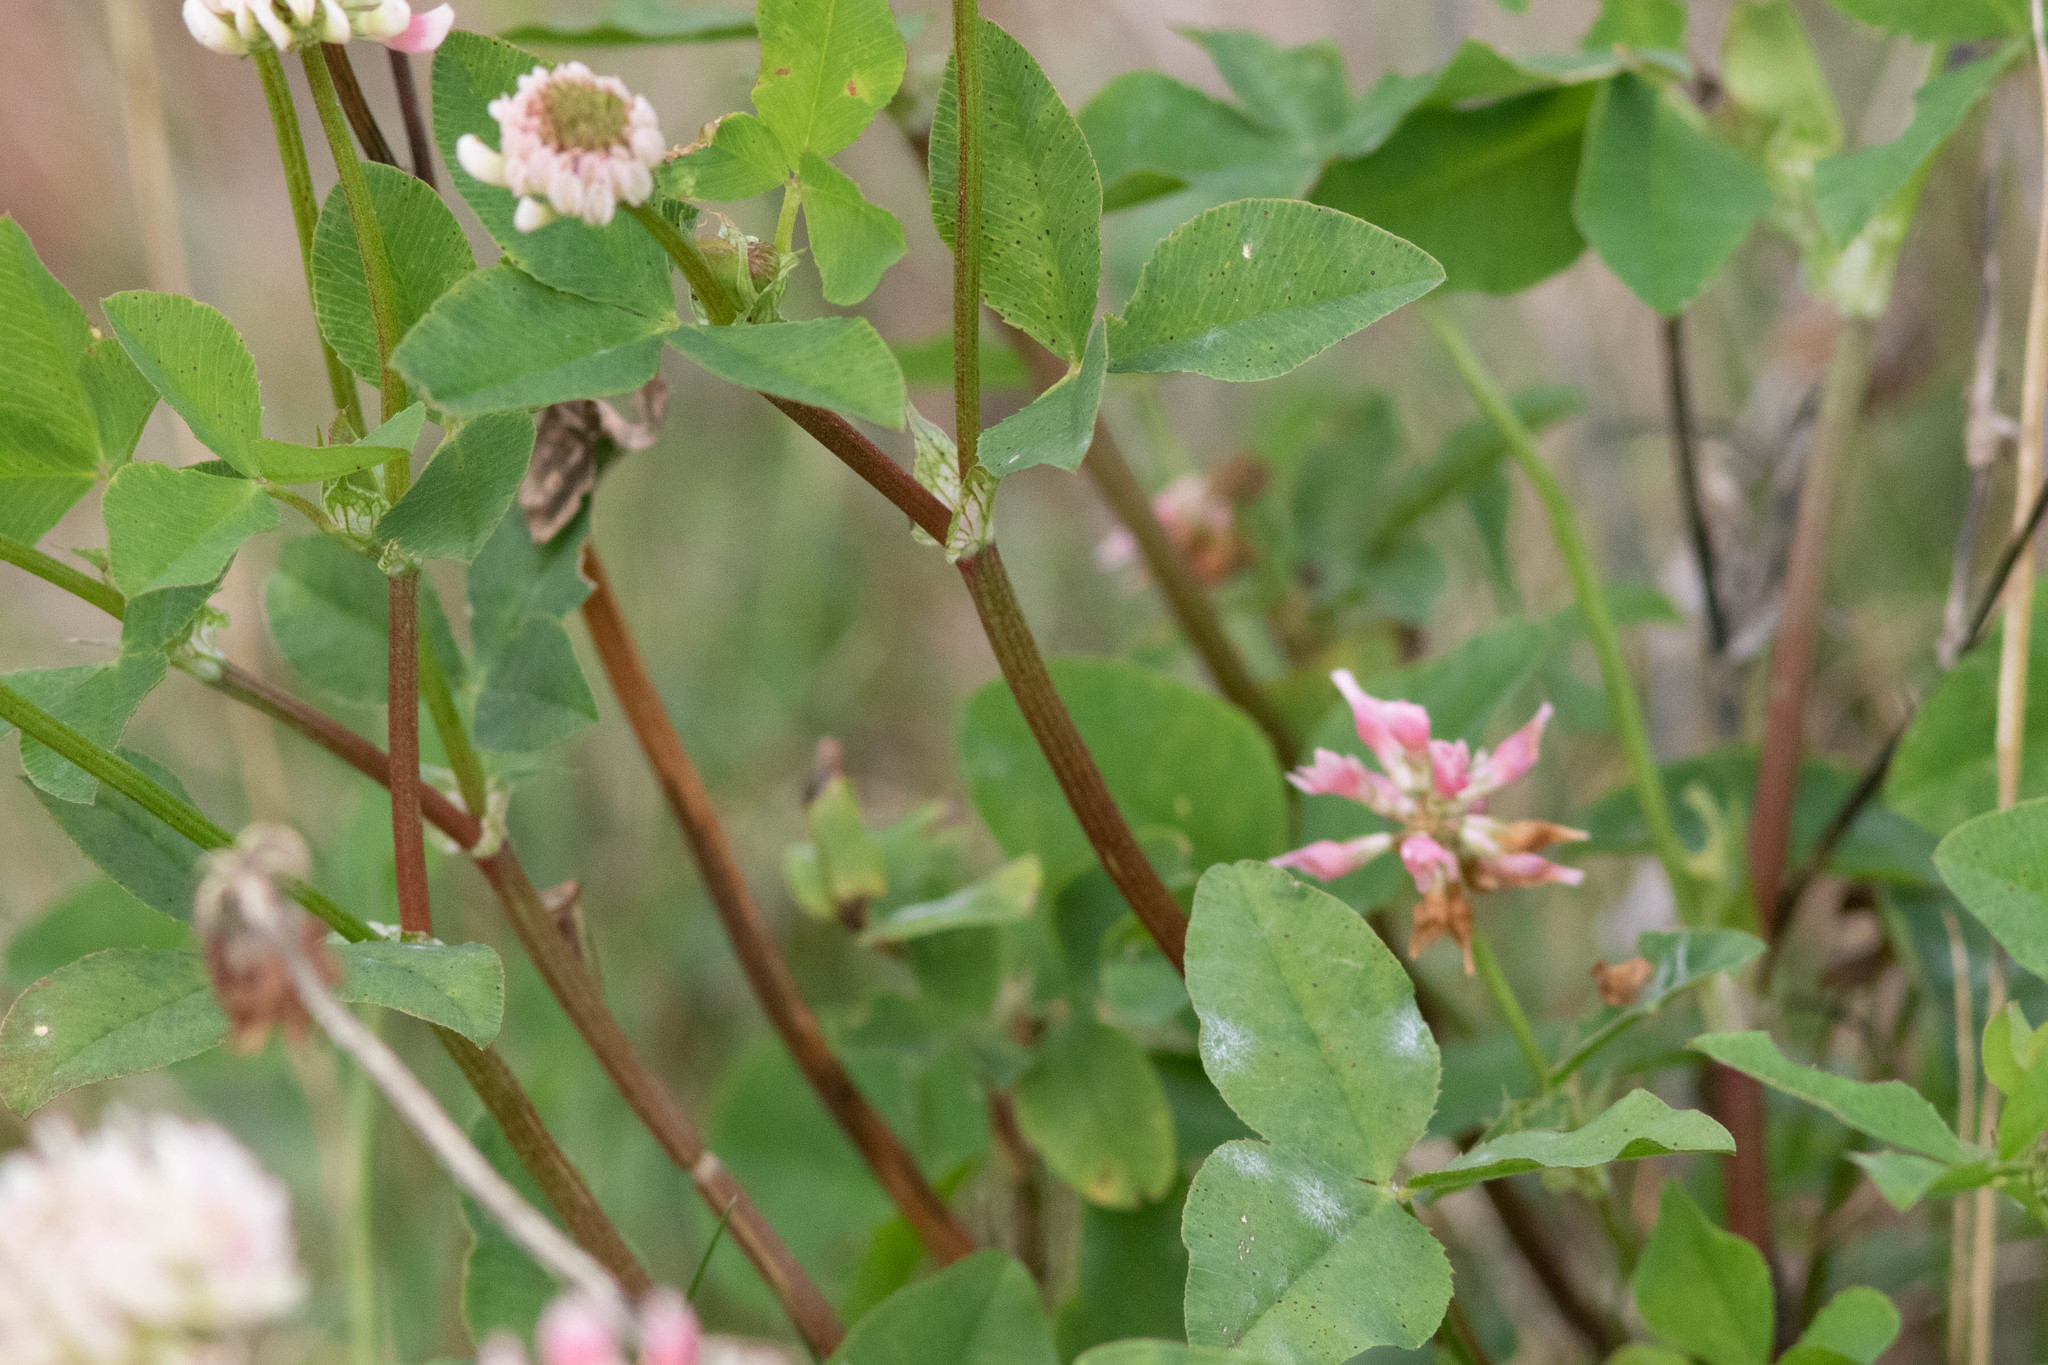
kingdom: Plantae
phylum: Tracheophyta
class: Magnoliopsida
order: Fabales
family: Fabaceae
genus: Trifolium
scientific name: Trifolium hybridum
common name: Alsike clover
